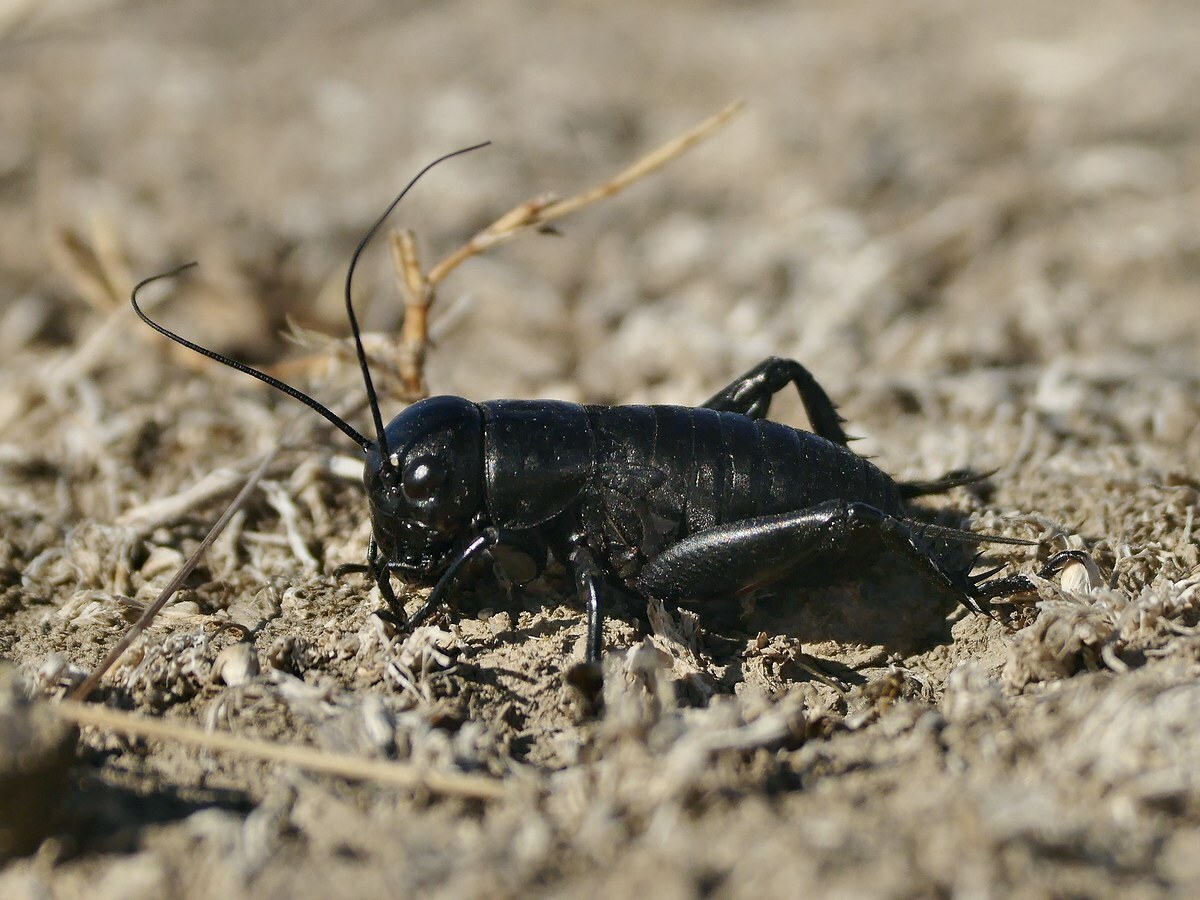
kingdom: Animalia
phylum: Arthropoda
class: Insecta
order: Orthoptera
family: Gryllidae
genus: Gryllus
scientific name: Gryllus campestris
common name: Field cricket
